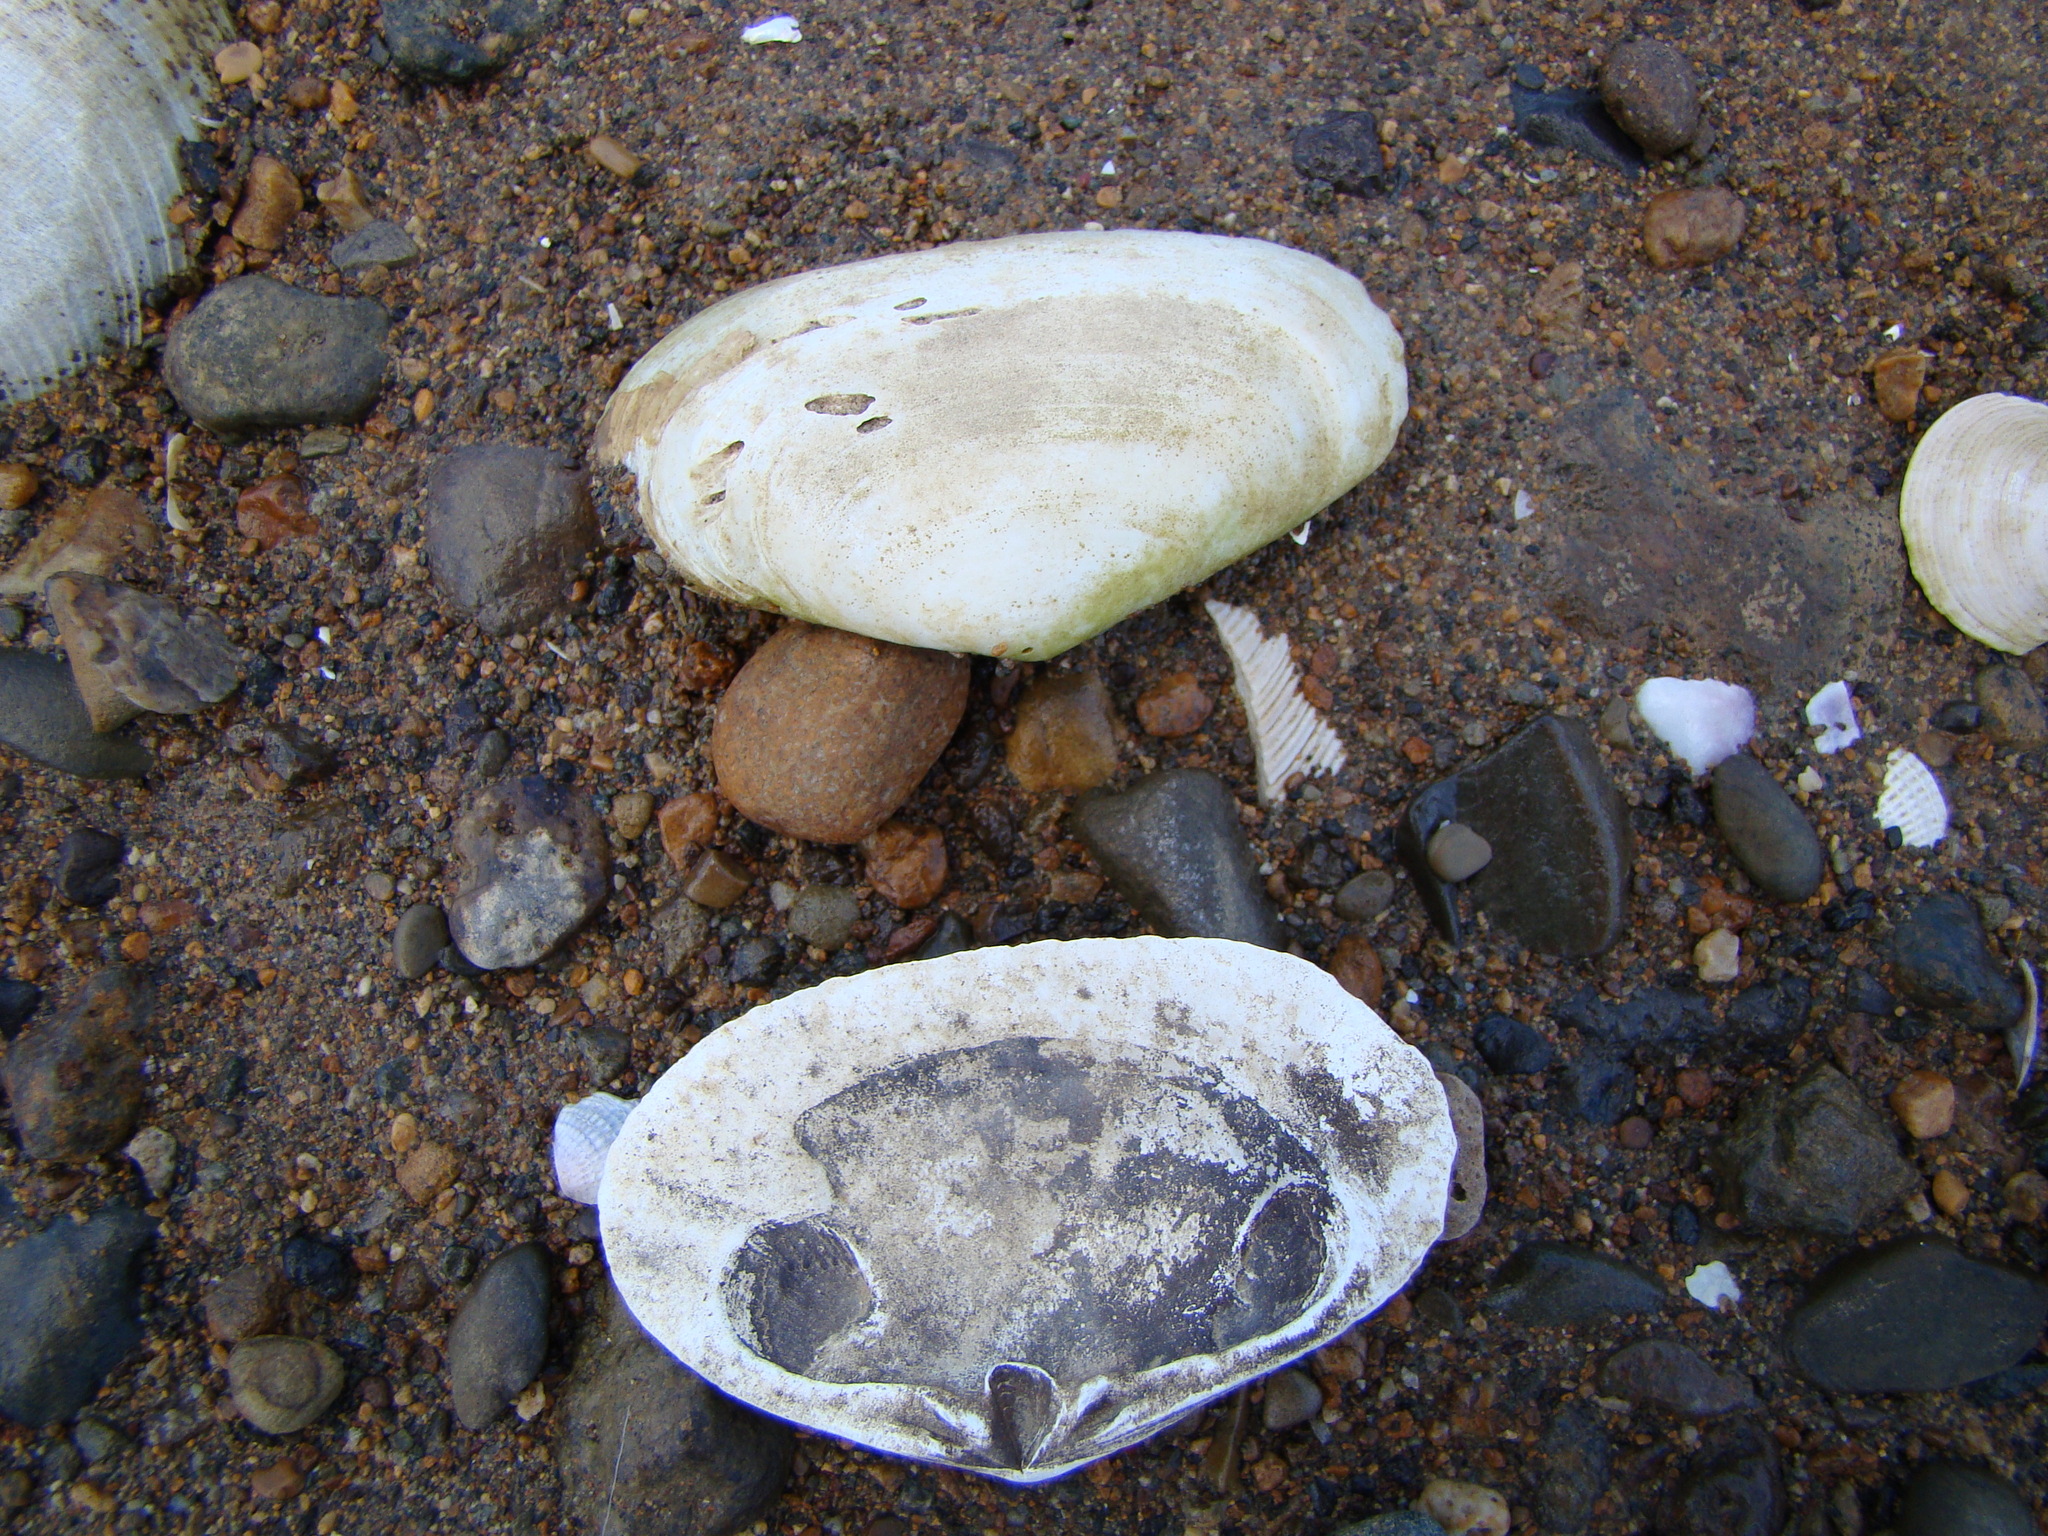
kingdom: Animalia
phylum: Mollusca
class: Bivalvia
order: Venerida
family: Mesodesmatidae
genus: Paphies
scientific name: Paphies australis
